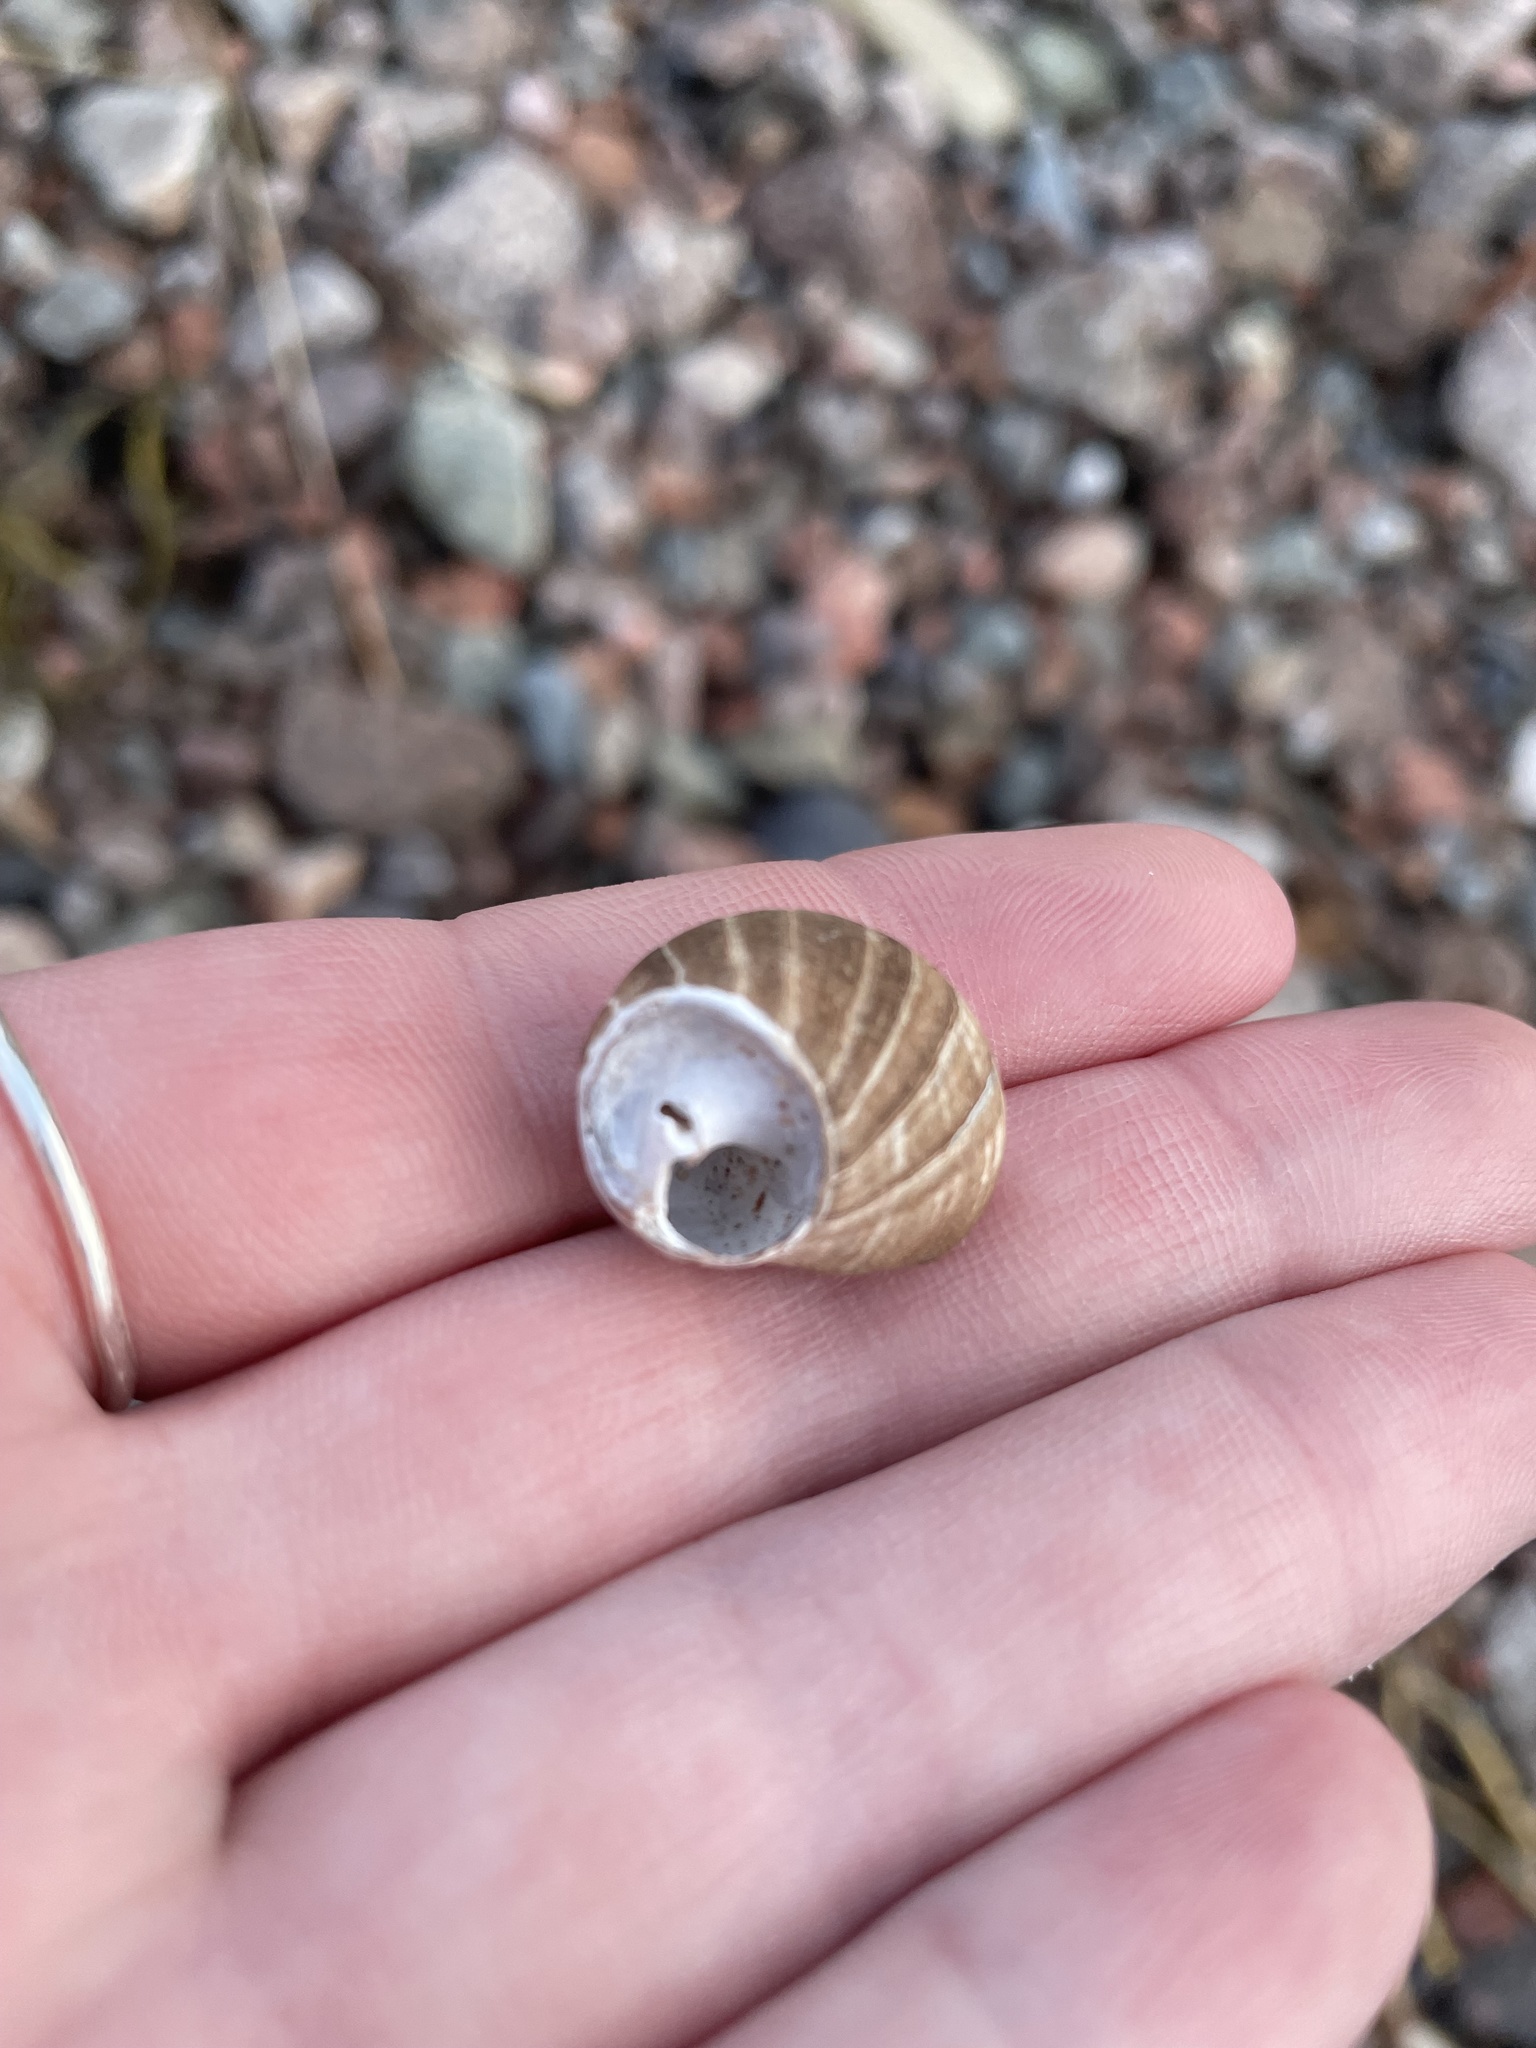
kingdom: Animalia
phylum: Mollusca
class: Gastropoda
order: Littorinimorpha
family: Littorinidae
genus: Littorina
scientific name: Littorina littorea
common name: Common periwinkle
